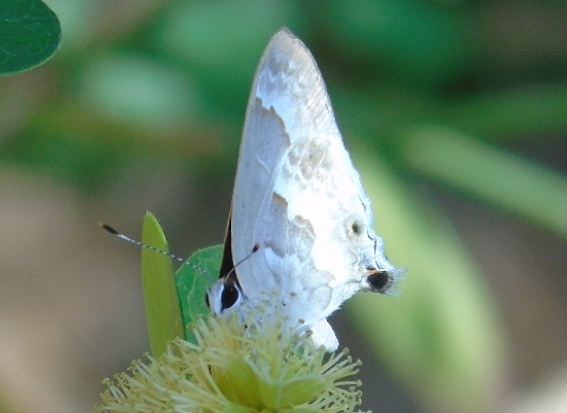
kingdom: Animalia
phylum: Arthropoda
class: Insecta
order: Lepidoptera
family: Lycaenidae
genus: Strymon
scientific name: Strymon albata
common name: White scrub-hairstreak
